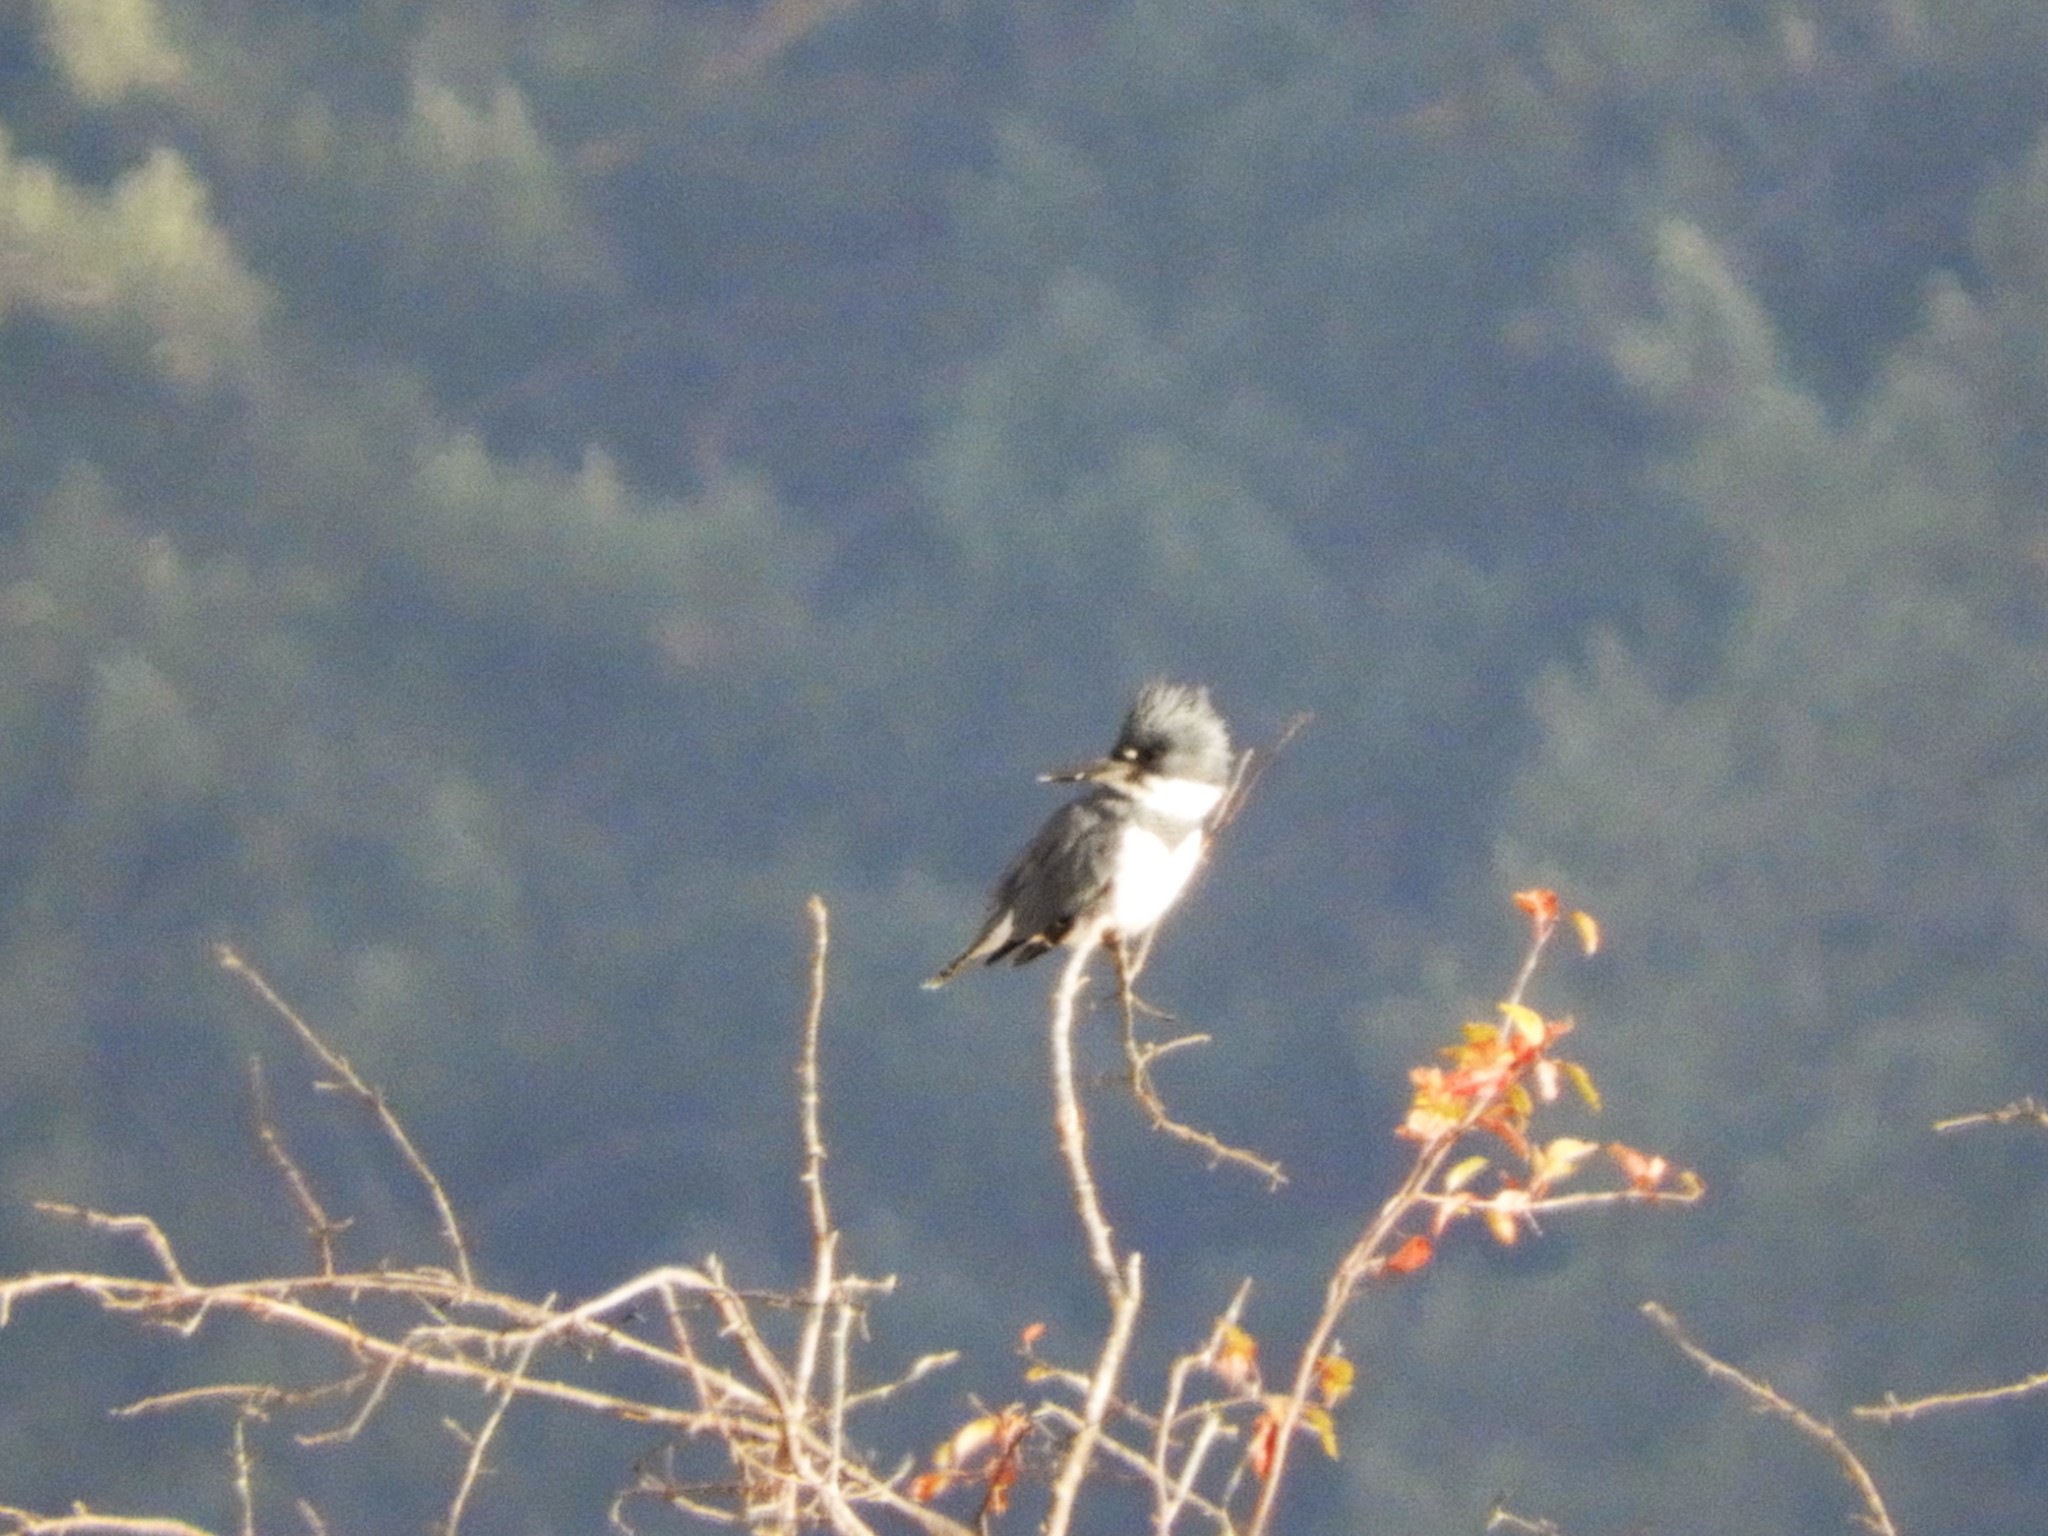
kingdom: Animalia
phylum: Chordata
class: Aves
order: Coraciiformes
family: Alcedinidae
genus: Megaceryle
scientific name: Megaceryle alcyon
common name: Belted kingfisher
